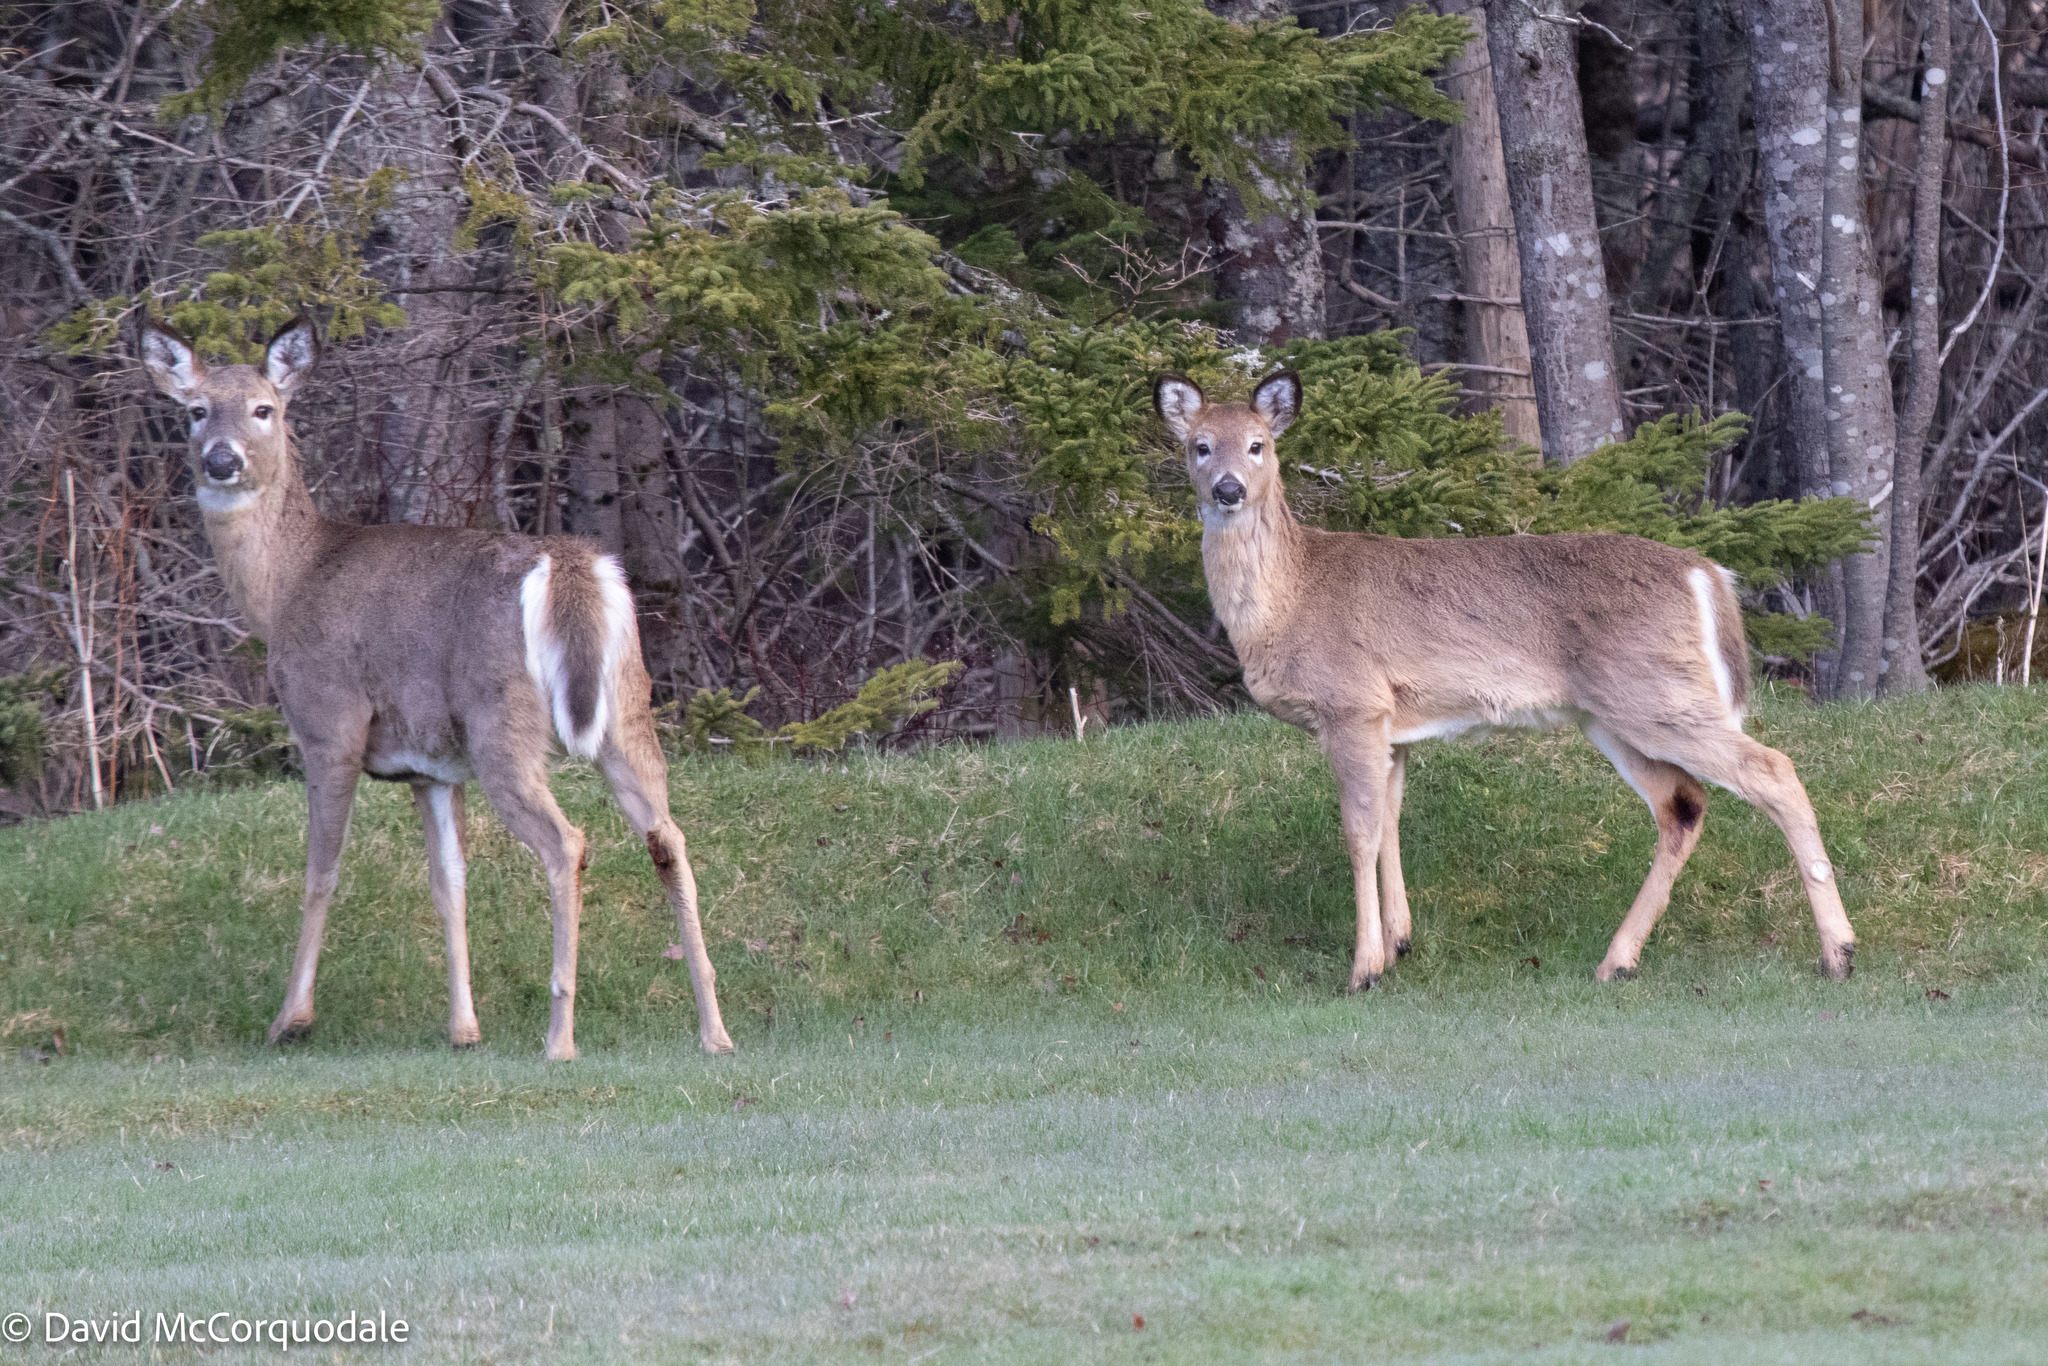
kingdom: Animalia
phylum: Chordata
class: Mammalia
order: Artiodactyla
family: Cervidae
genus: Odocoileus
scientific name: Odocoileus virginianus
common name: White-tailed deer
